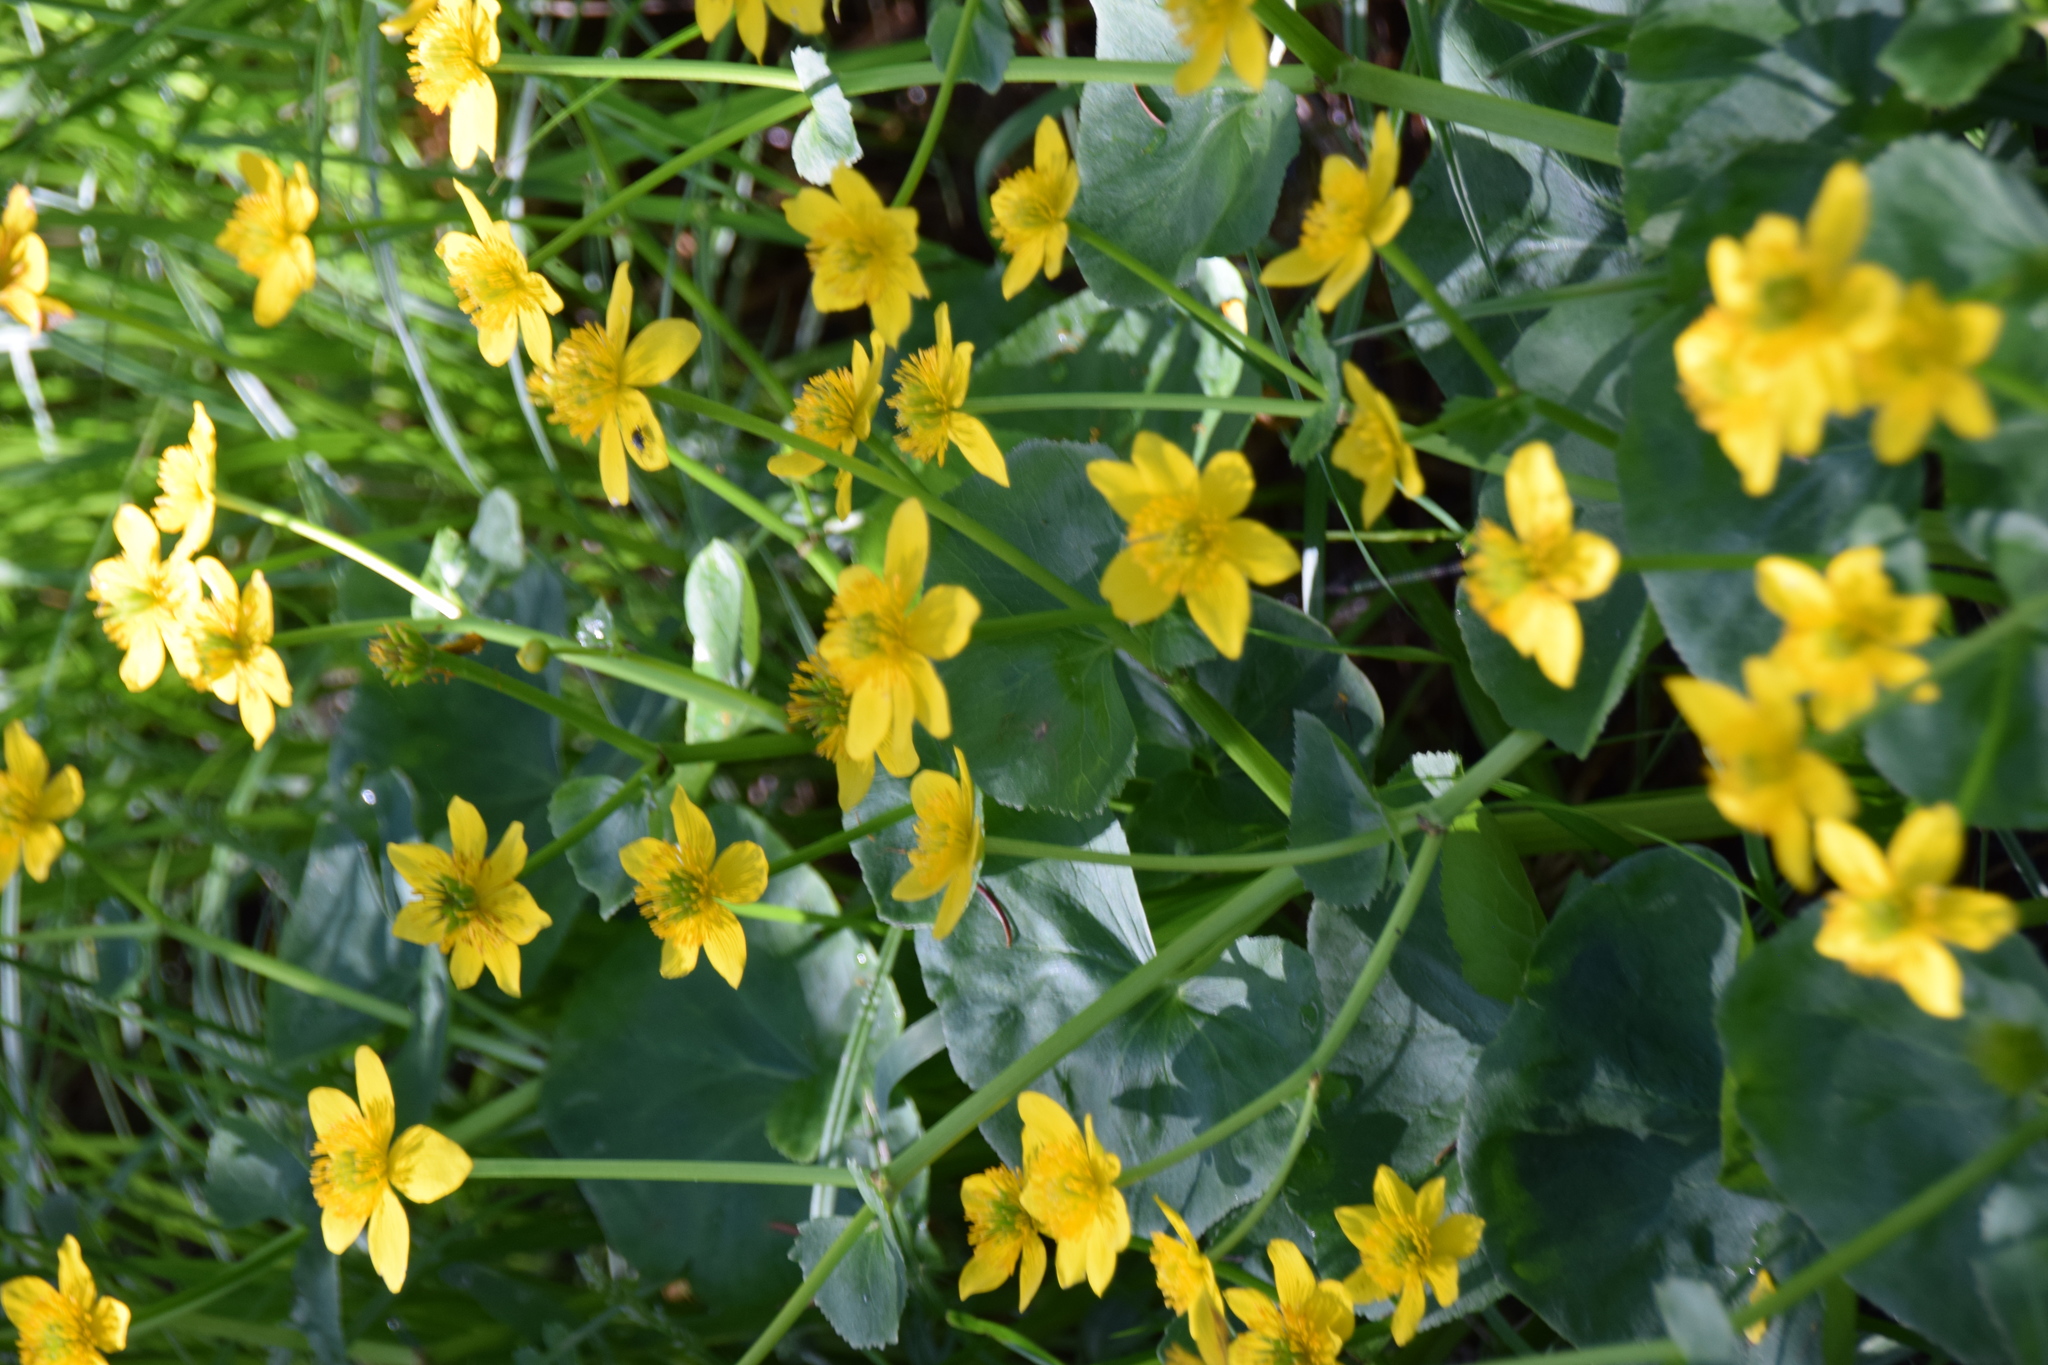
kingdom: Plantae
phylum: Tracheophyta
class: Magnoliopsida
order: Ranunculales
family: Ranunculaceae
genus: Caltha
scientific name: Caltha palustris
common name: Marsh marigold
